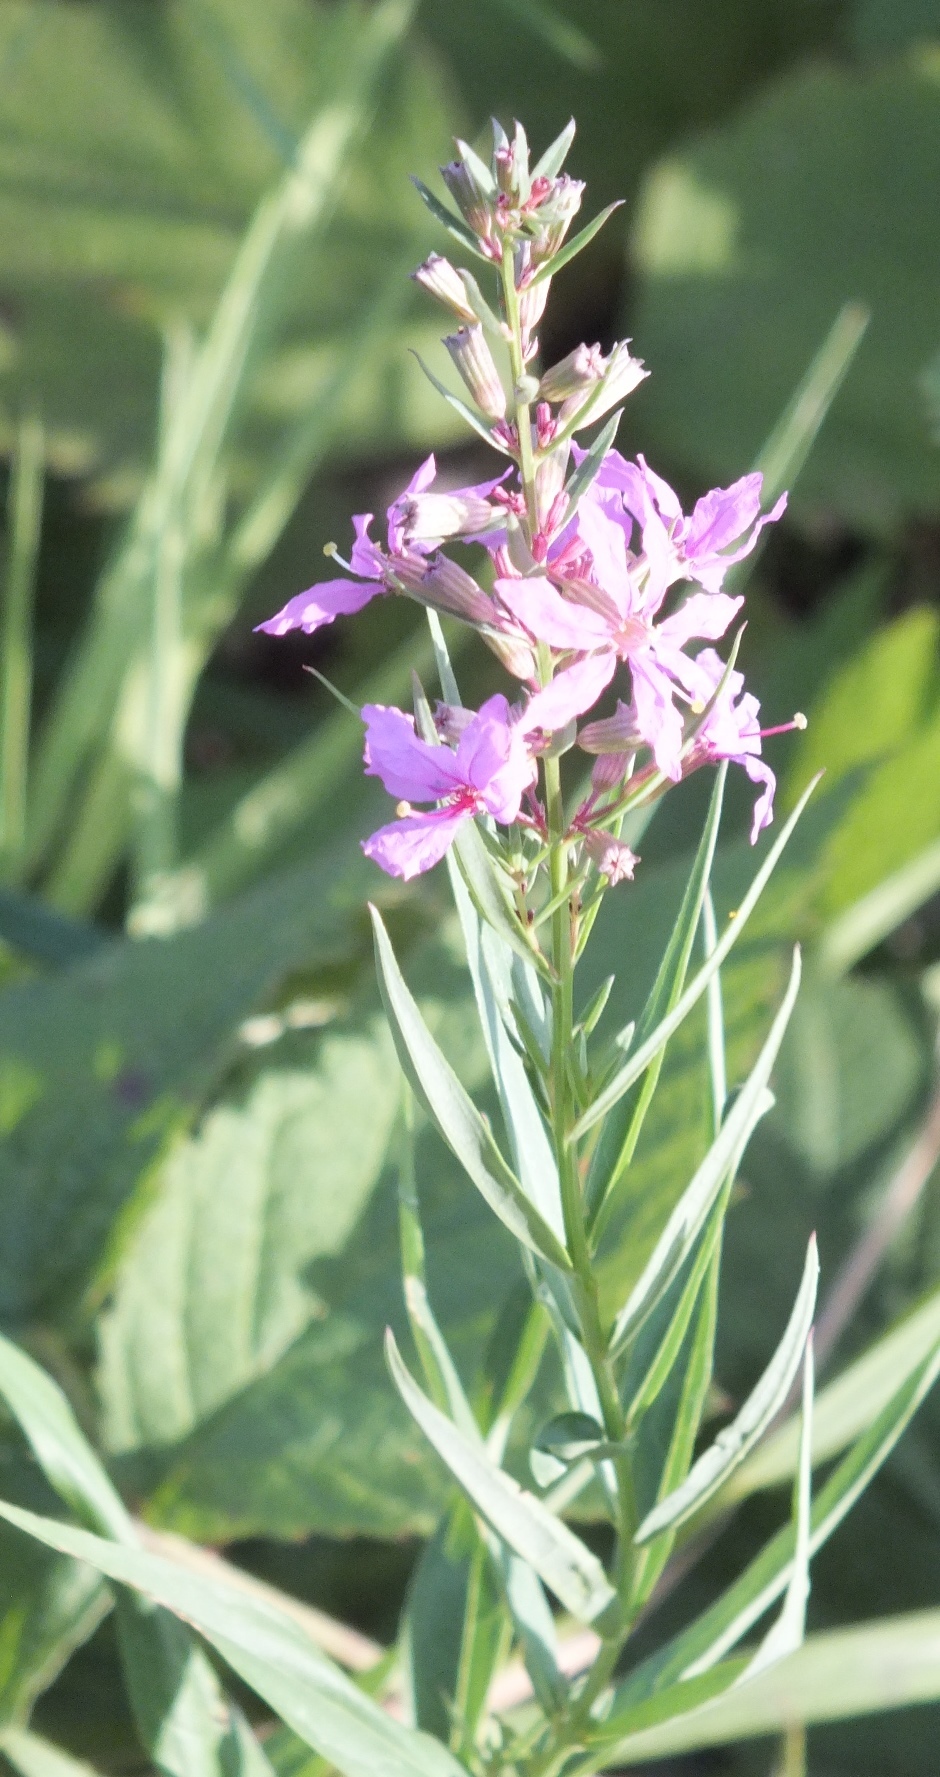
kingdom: Plantae
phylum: Tracheophyta
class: Magnoliopsida
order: Myrtales
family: Lythraceae
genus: Lythrum
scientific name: Lythrum salicaria
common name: Purple loosestrife
